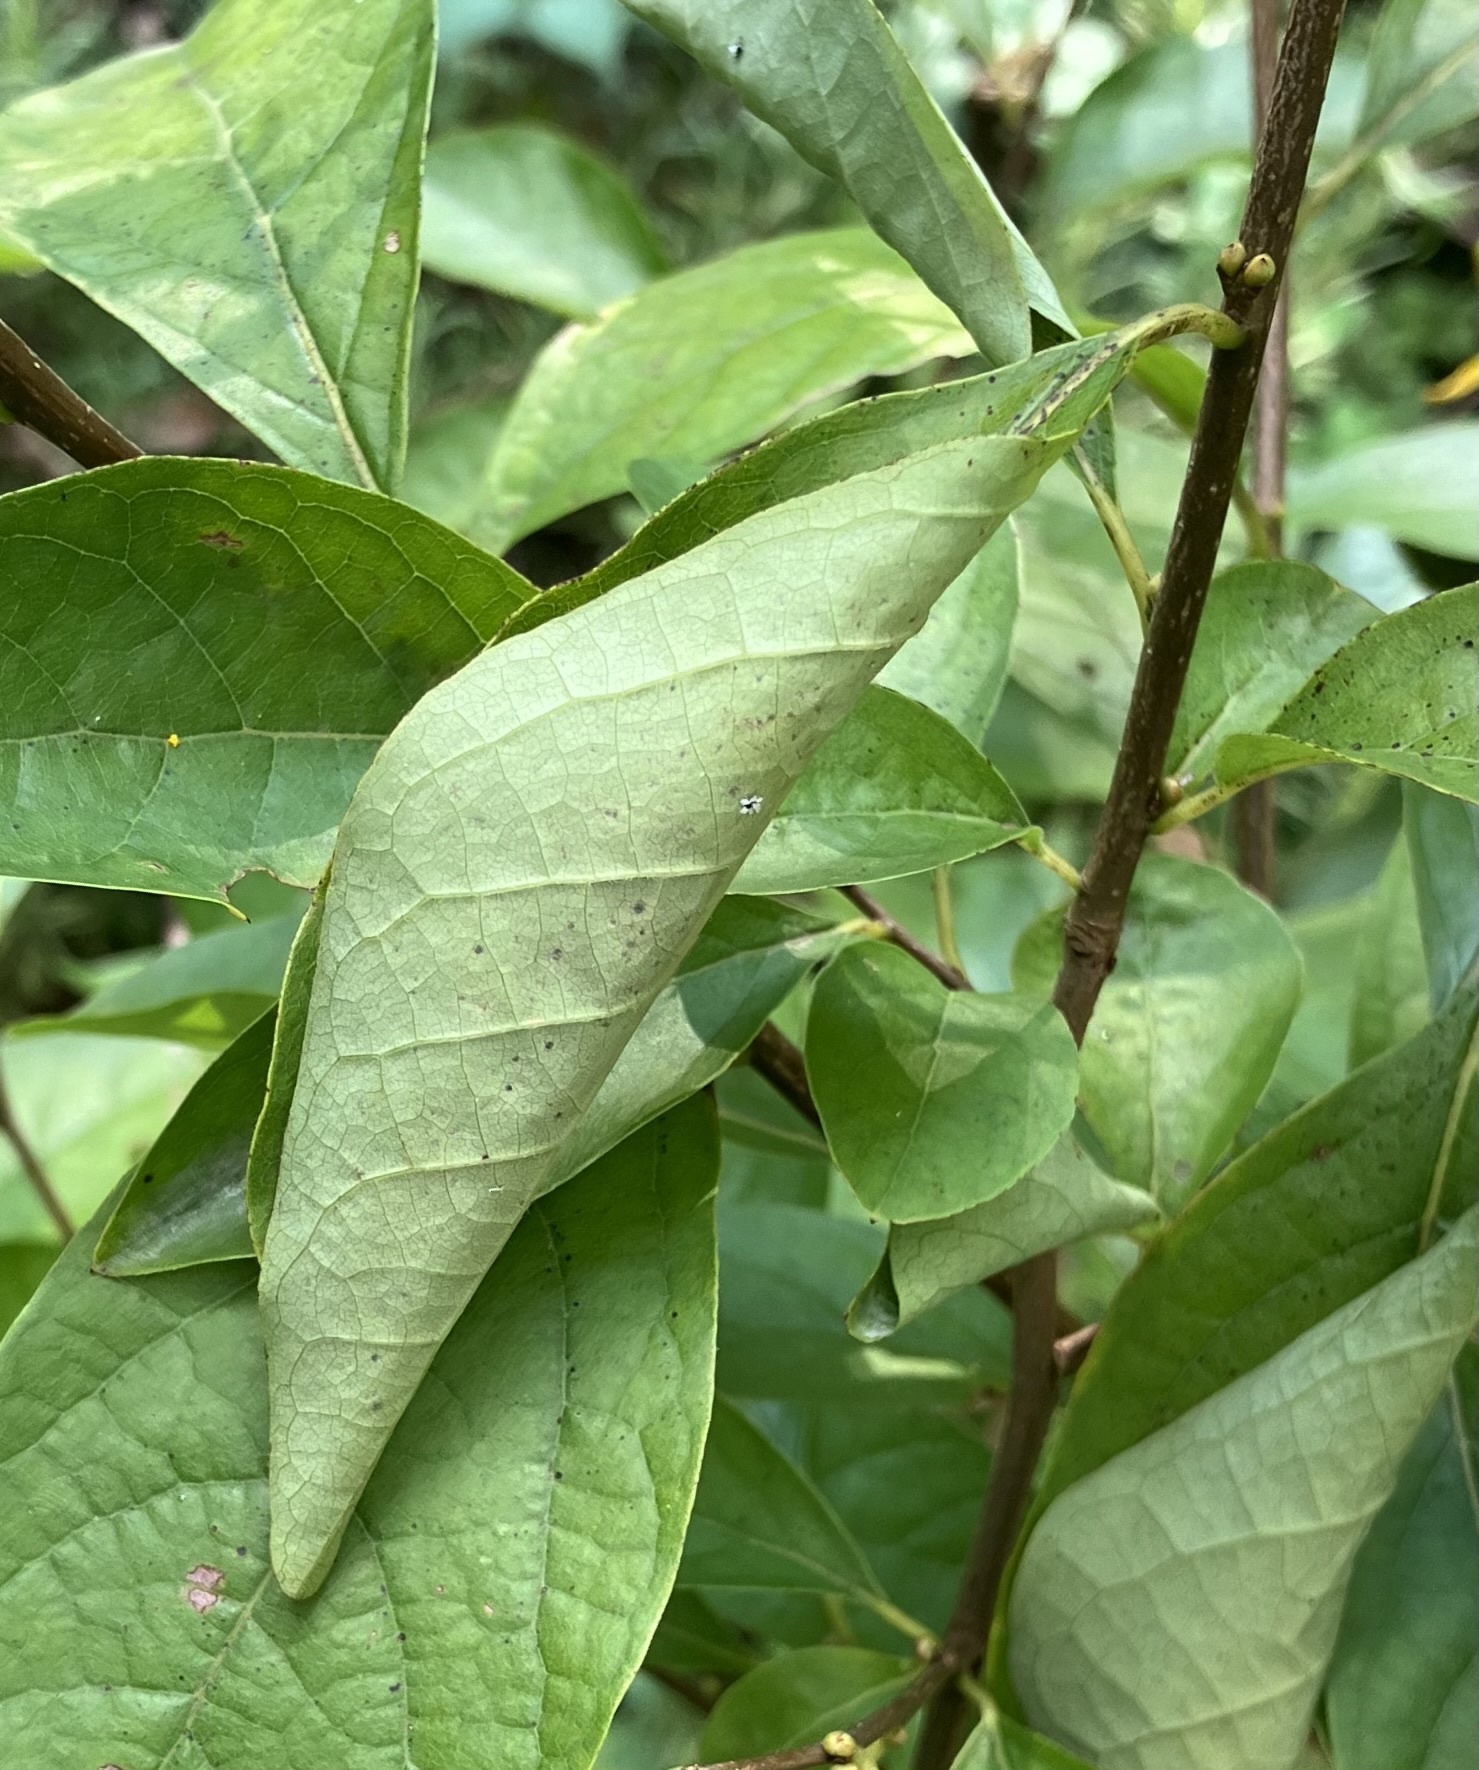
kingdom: Animalia
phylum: Arthropoda
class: Insecta
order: Lepidoptera
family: Papilionidae
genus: Papilio
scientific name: Papilio troilus
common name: Spicebush swallowtail
